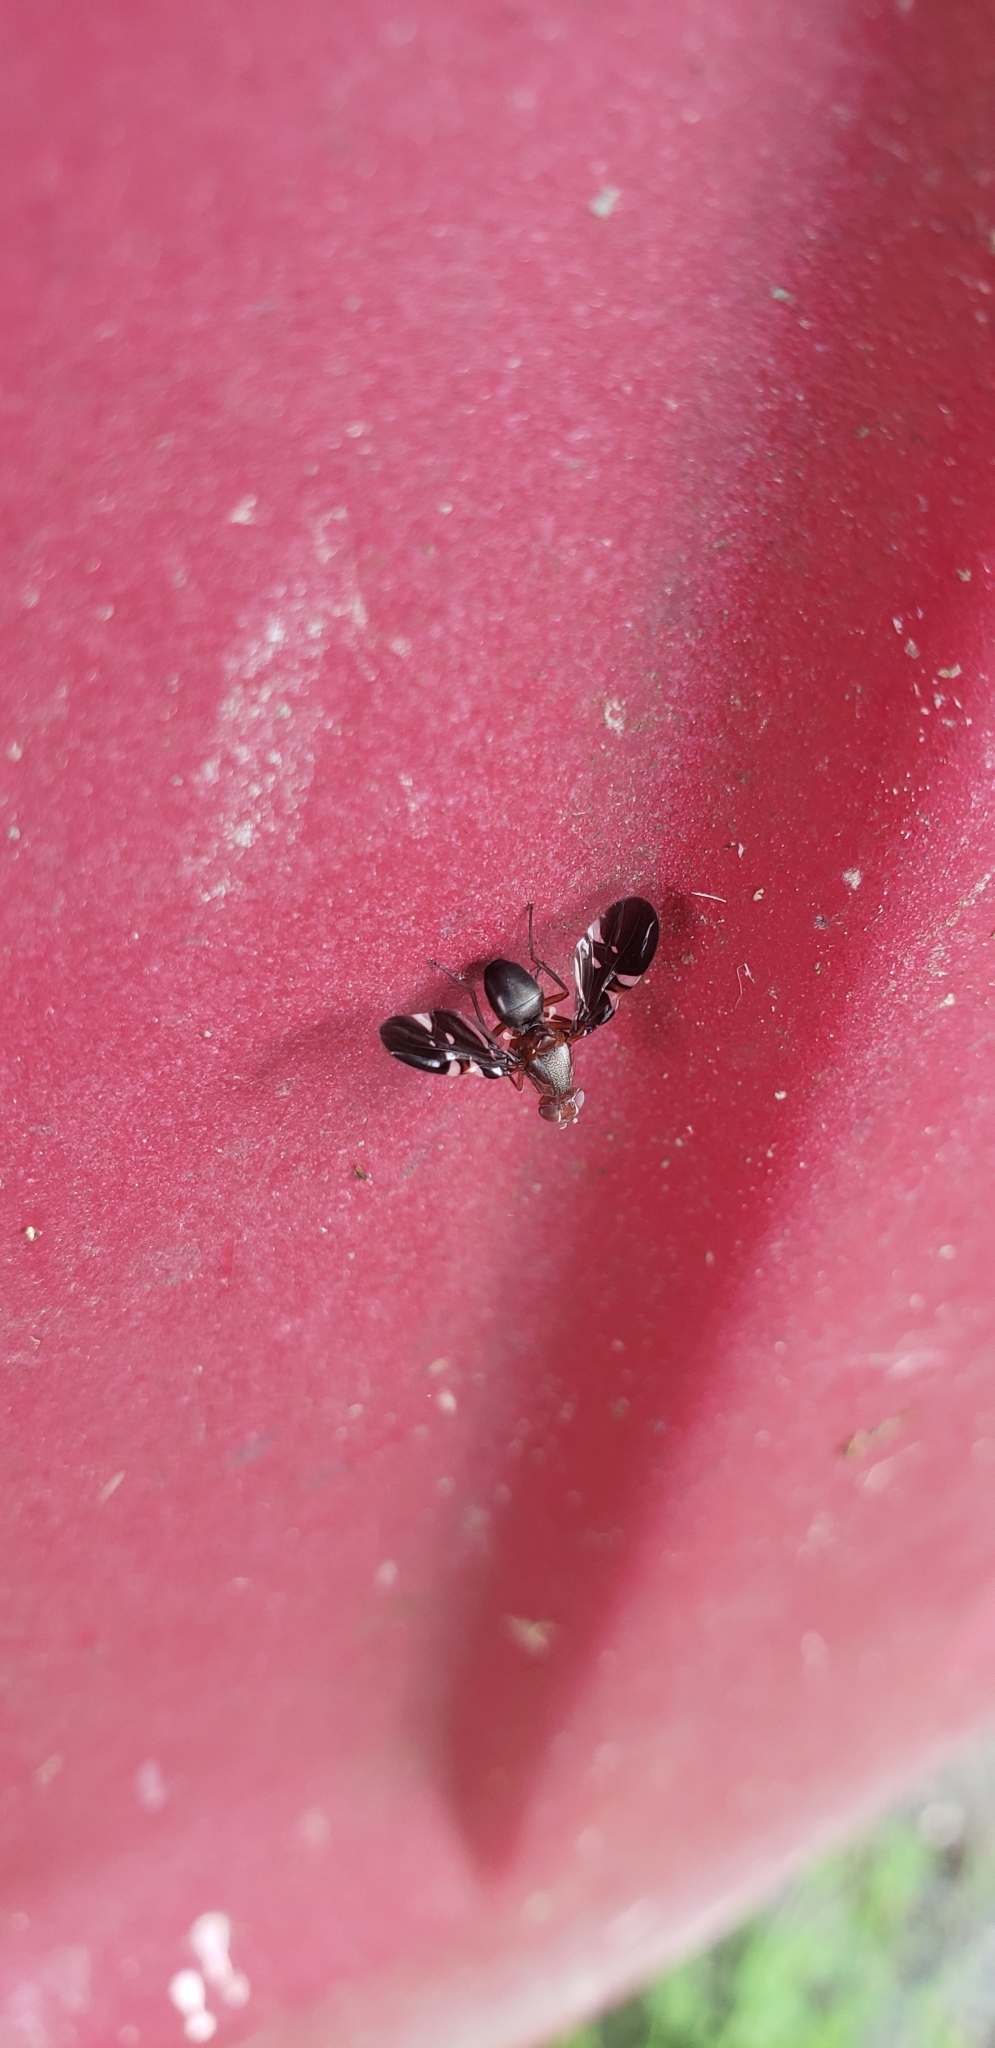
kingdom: Animalia
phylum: Arthropoda
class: Insecta
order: Diptera
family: Ulidiidae
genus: Delphinia
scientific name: Delphinia picta
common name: Common picture-winged fly
